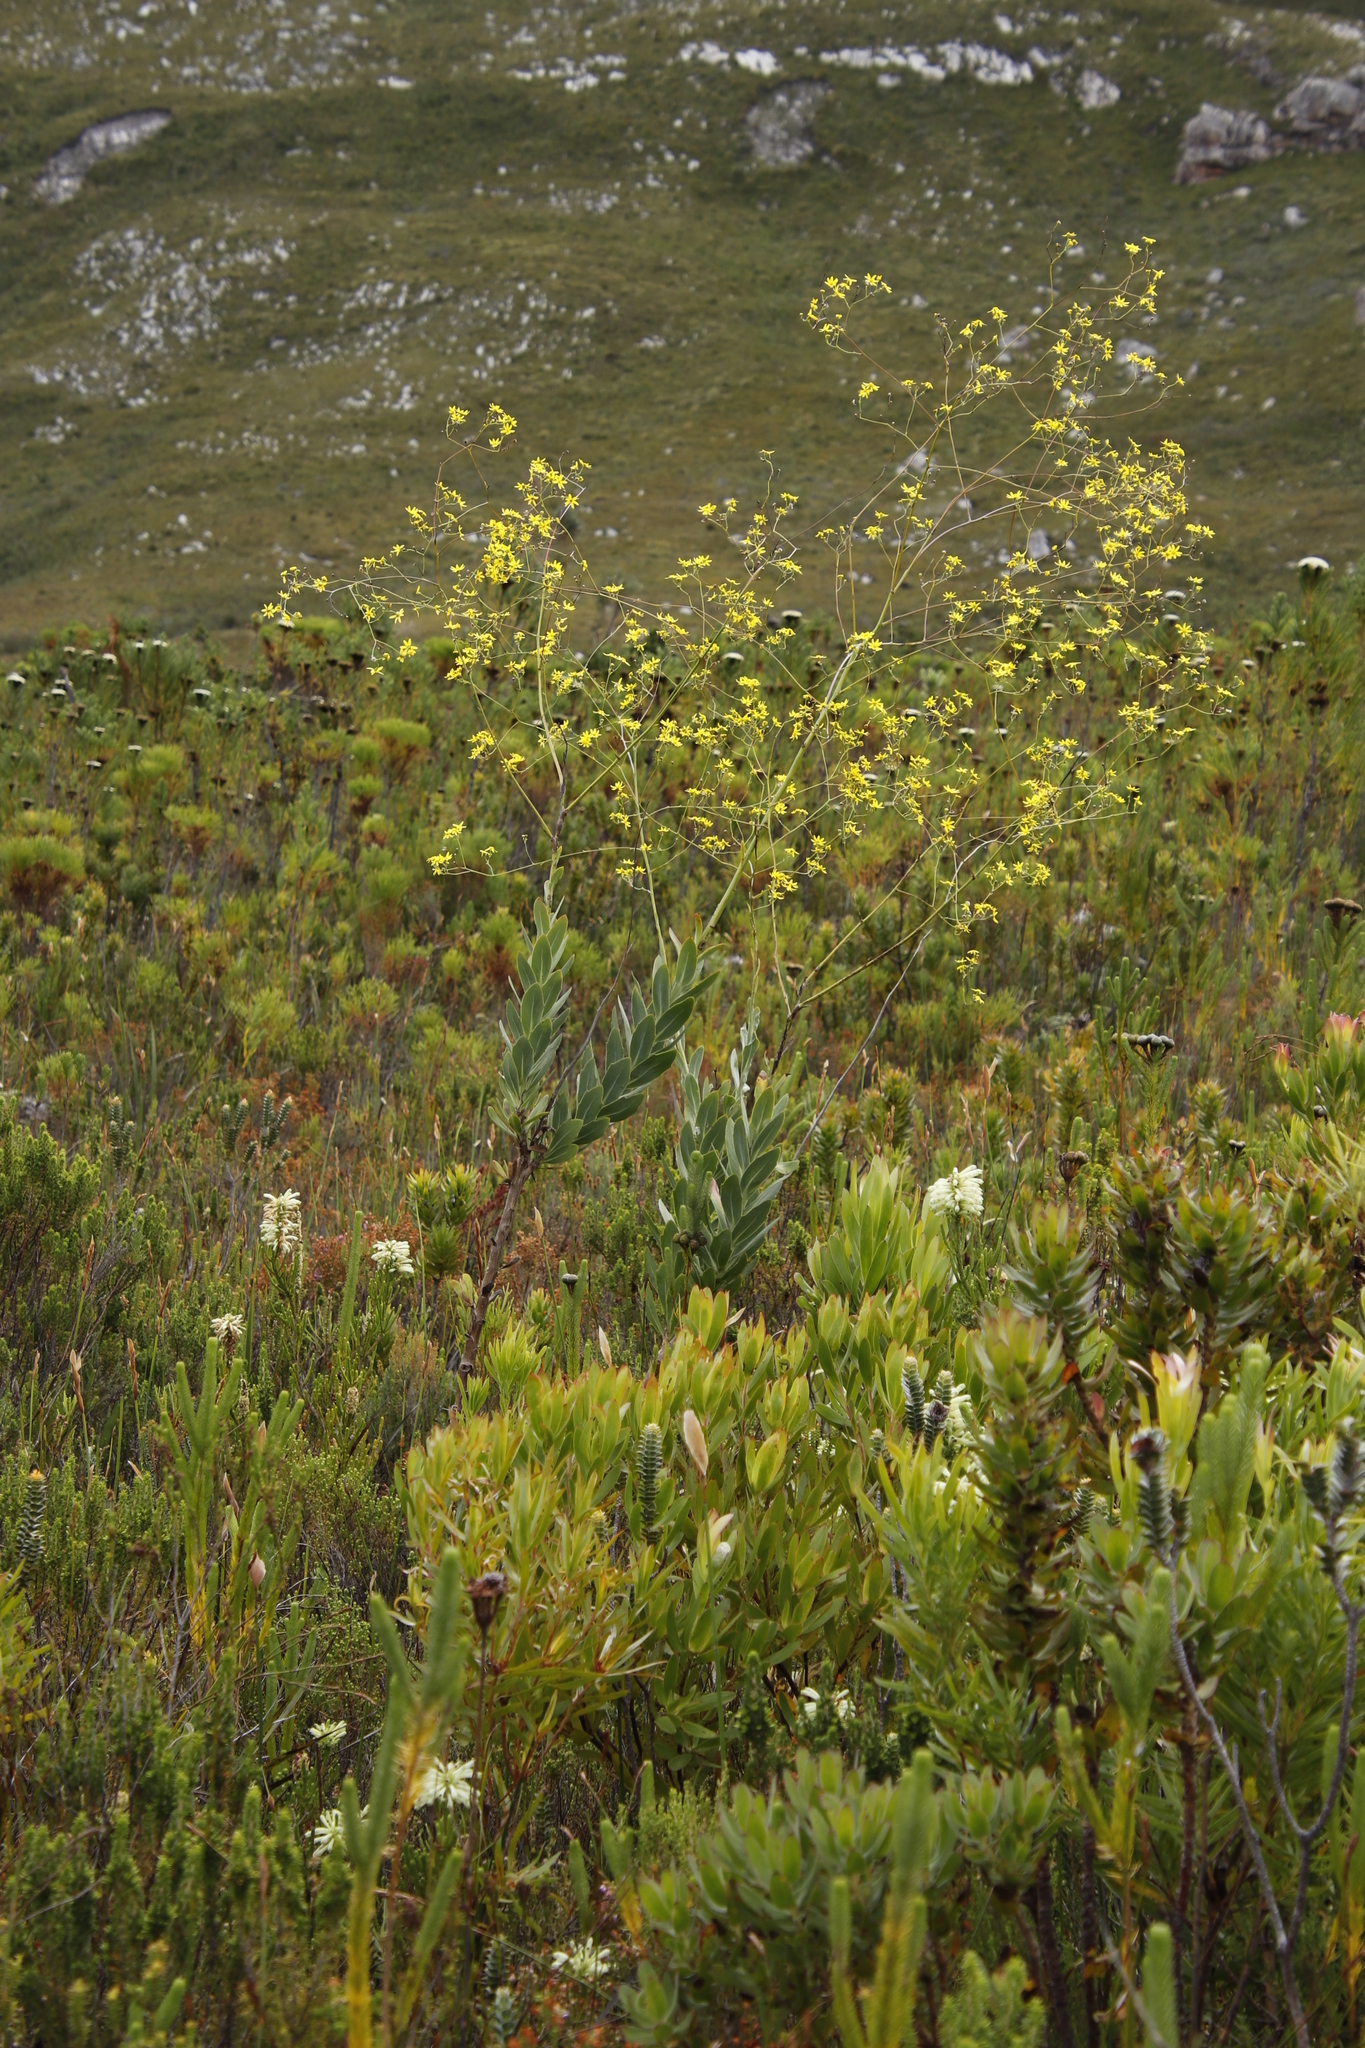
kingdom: Plantae
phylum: Tracheophyta
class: Magnoliopsida
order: Asterales
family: Asteraceae
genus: Othonna
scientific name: Othonna quinquedentata
